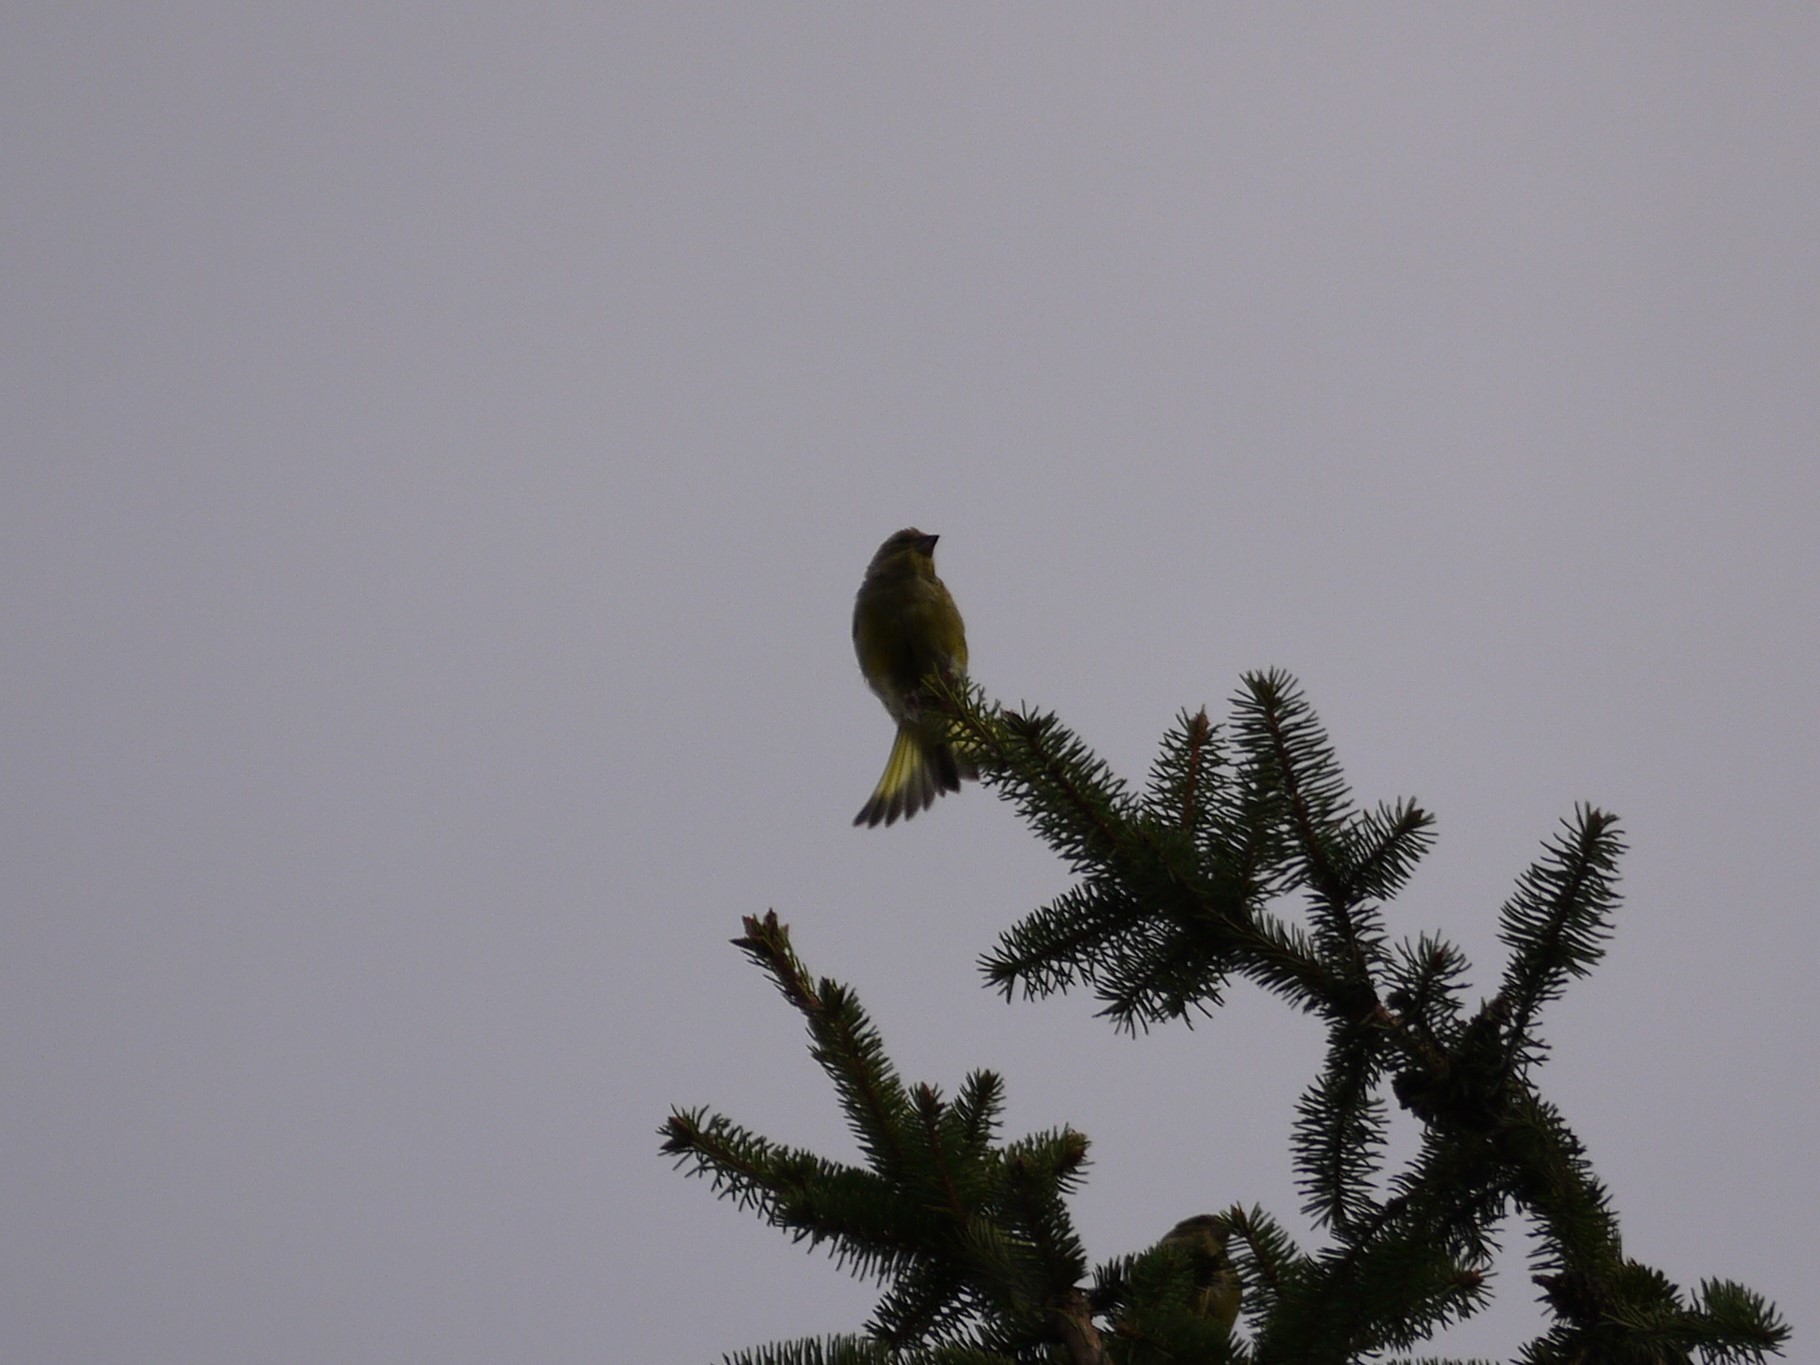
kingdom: Plantae
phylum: Tracheophyta
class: Liliopsida
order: Poales
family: Poaceae
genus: Chloris
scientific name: Chloris chloris
